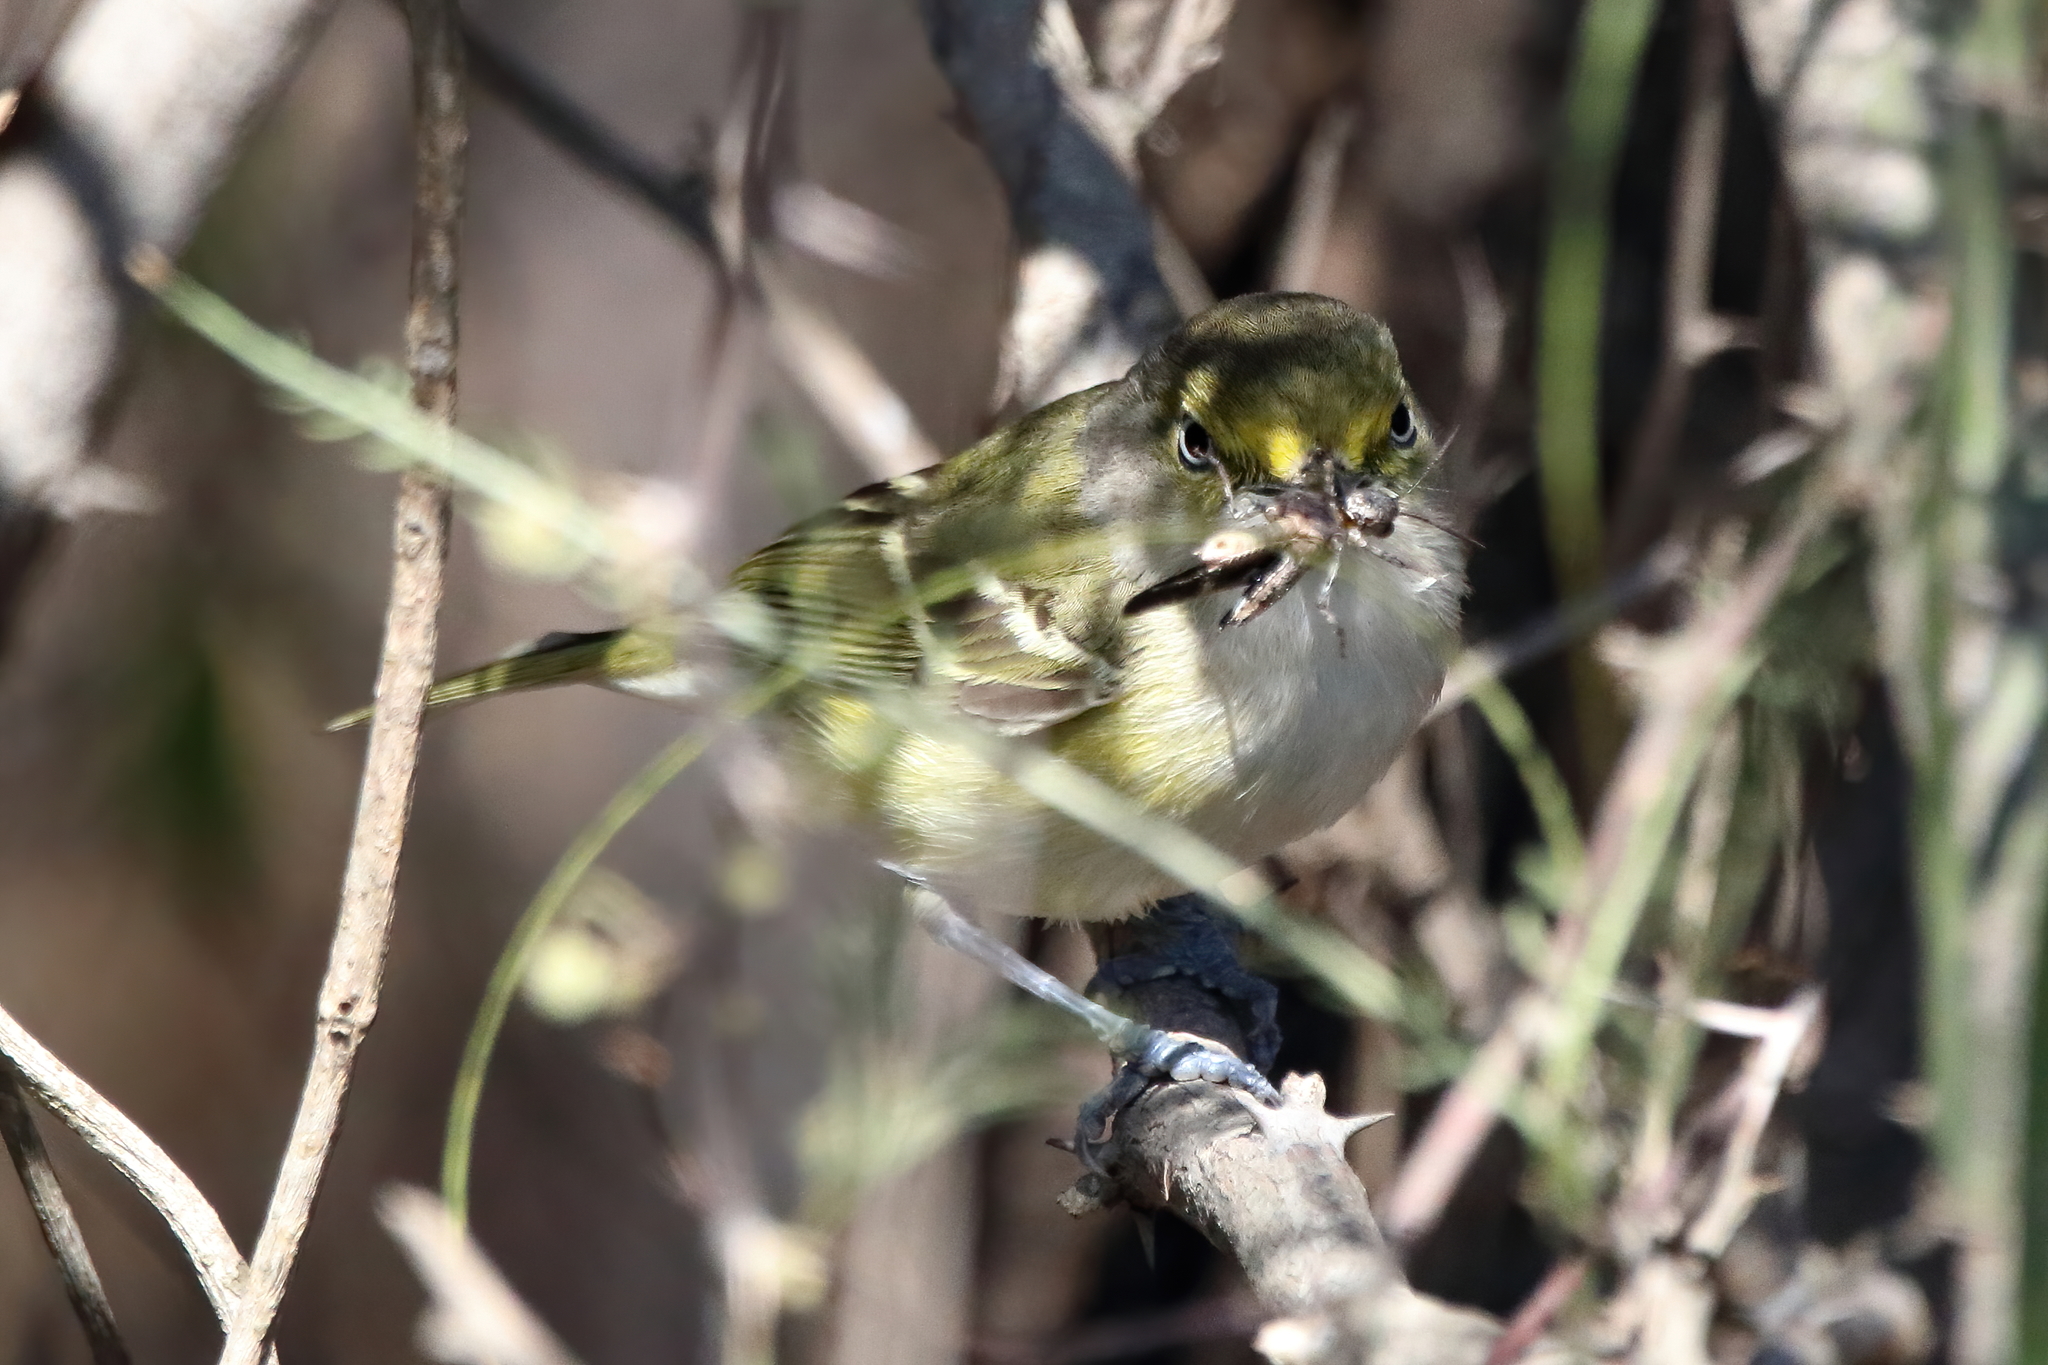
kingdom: Animalia
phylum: Chordata
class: Aves
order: Passeriformes
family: Vireonidae
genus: Vireo
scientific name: Vireo griseus
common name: White-eyed vireo
